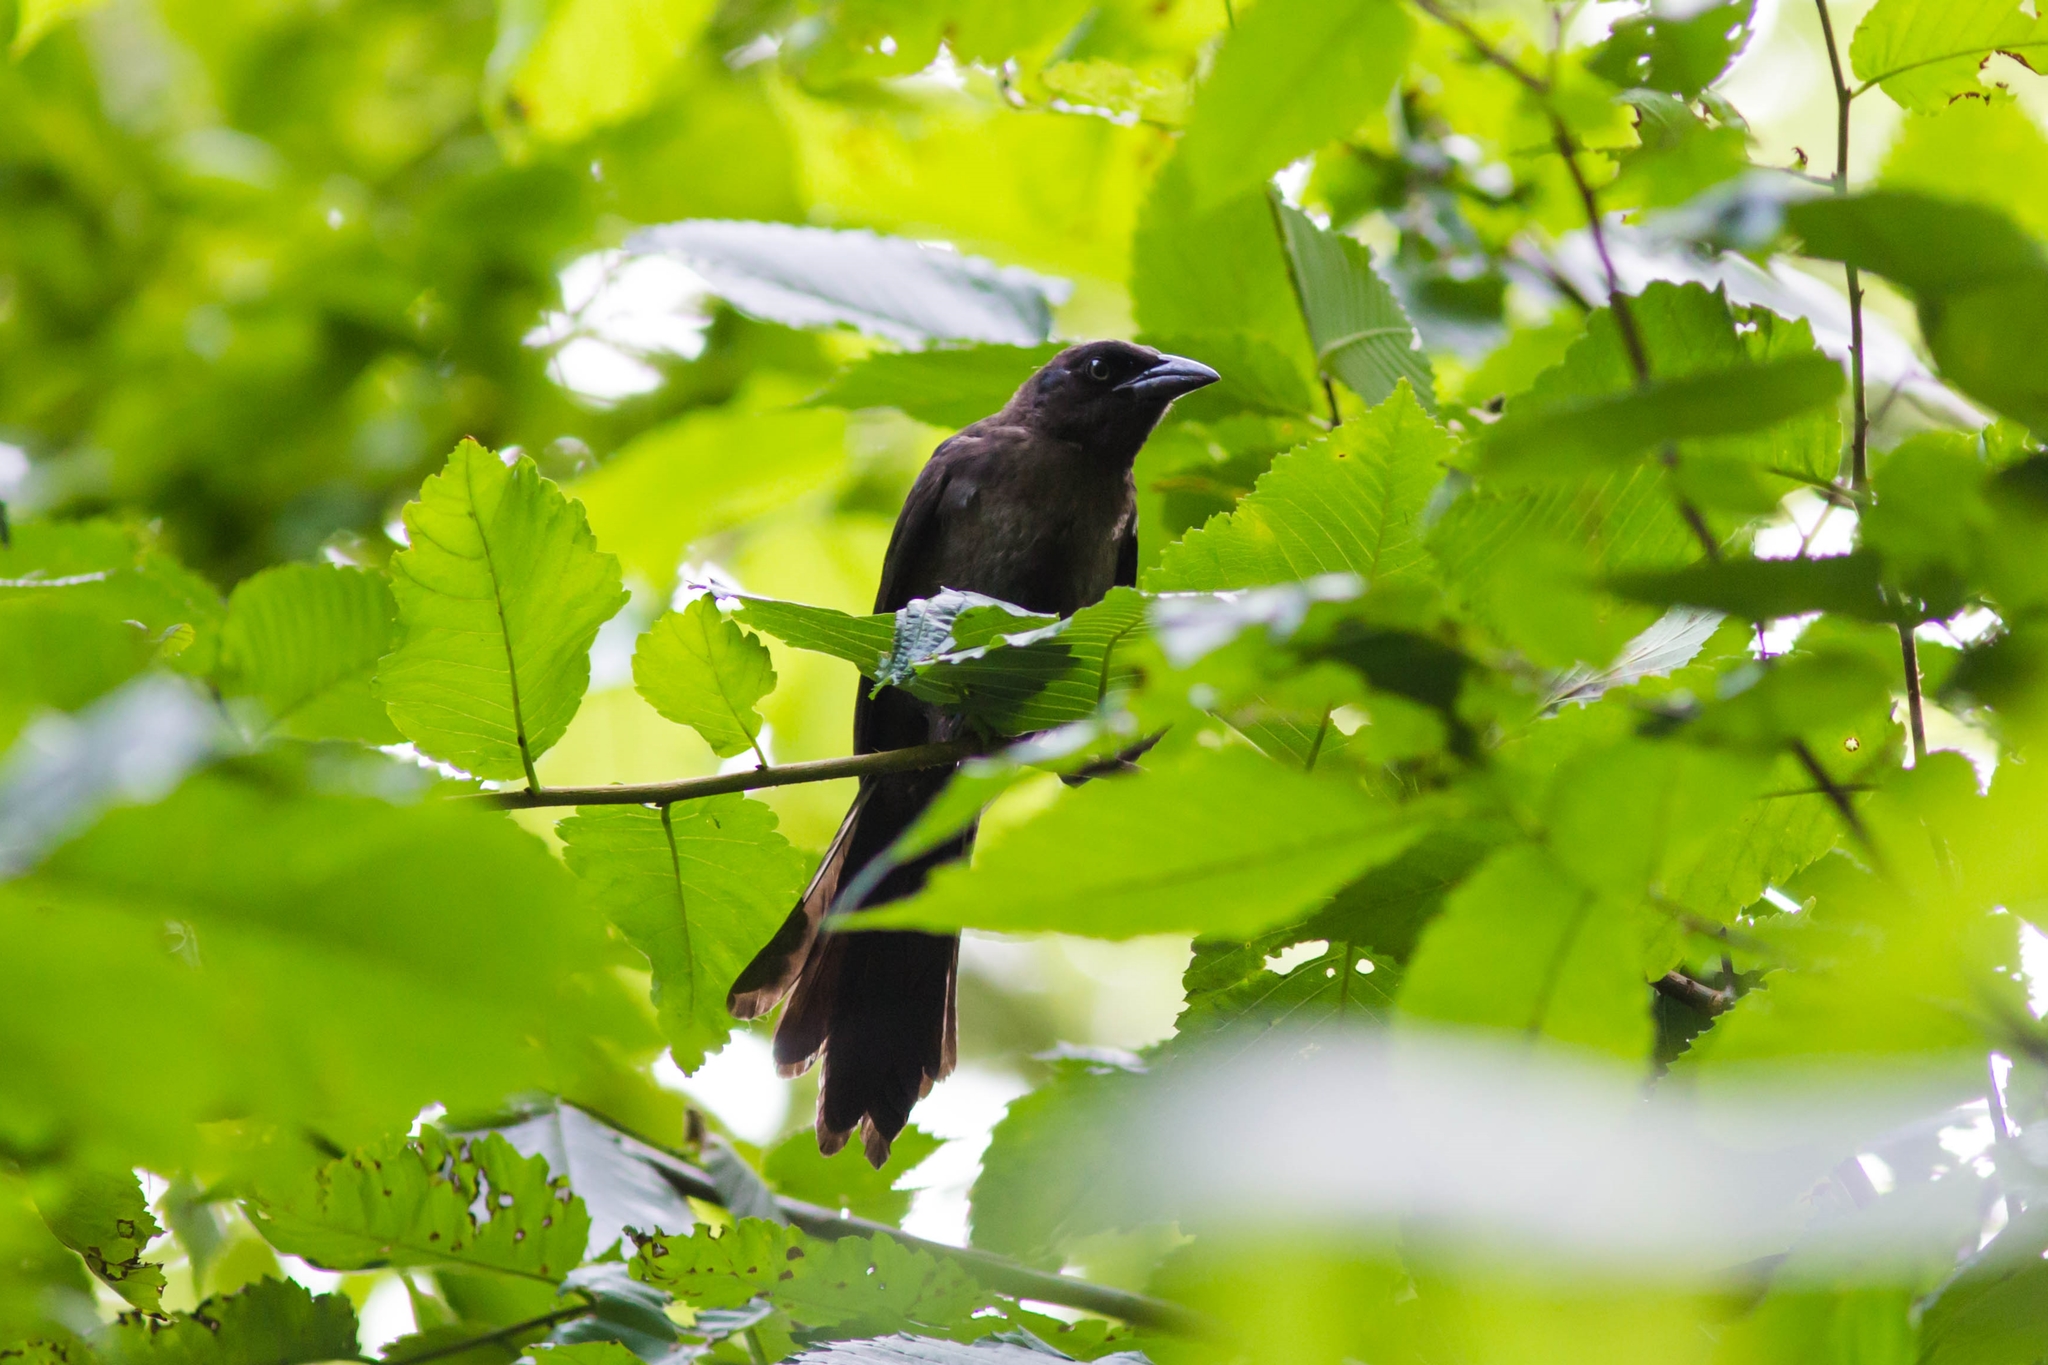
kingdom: Animalia
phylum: Chordata
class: Aves
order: Passeriformes
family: Icteridae
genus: Quiscalus
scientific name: Quiscalus quiscula
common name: Common grackle
